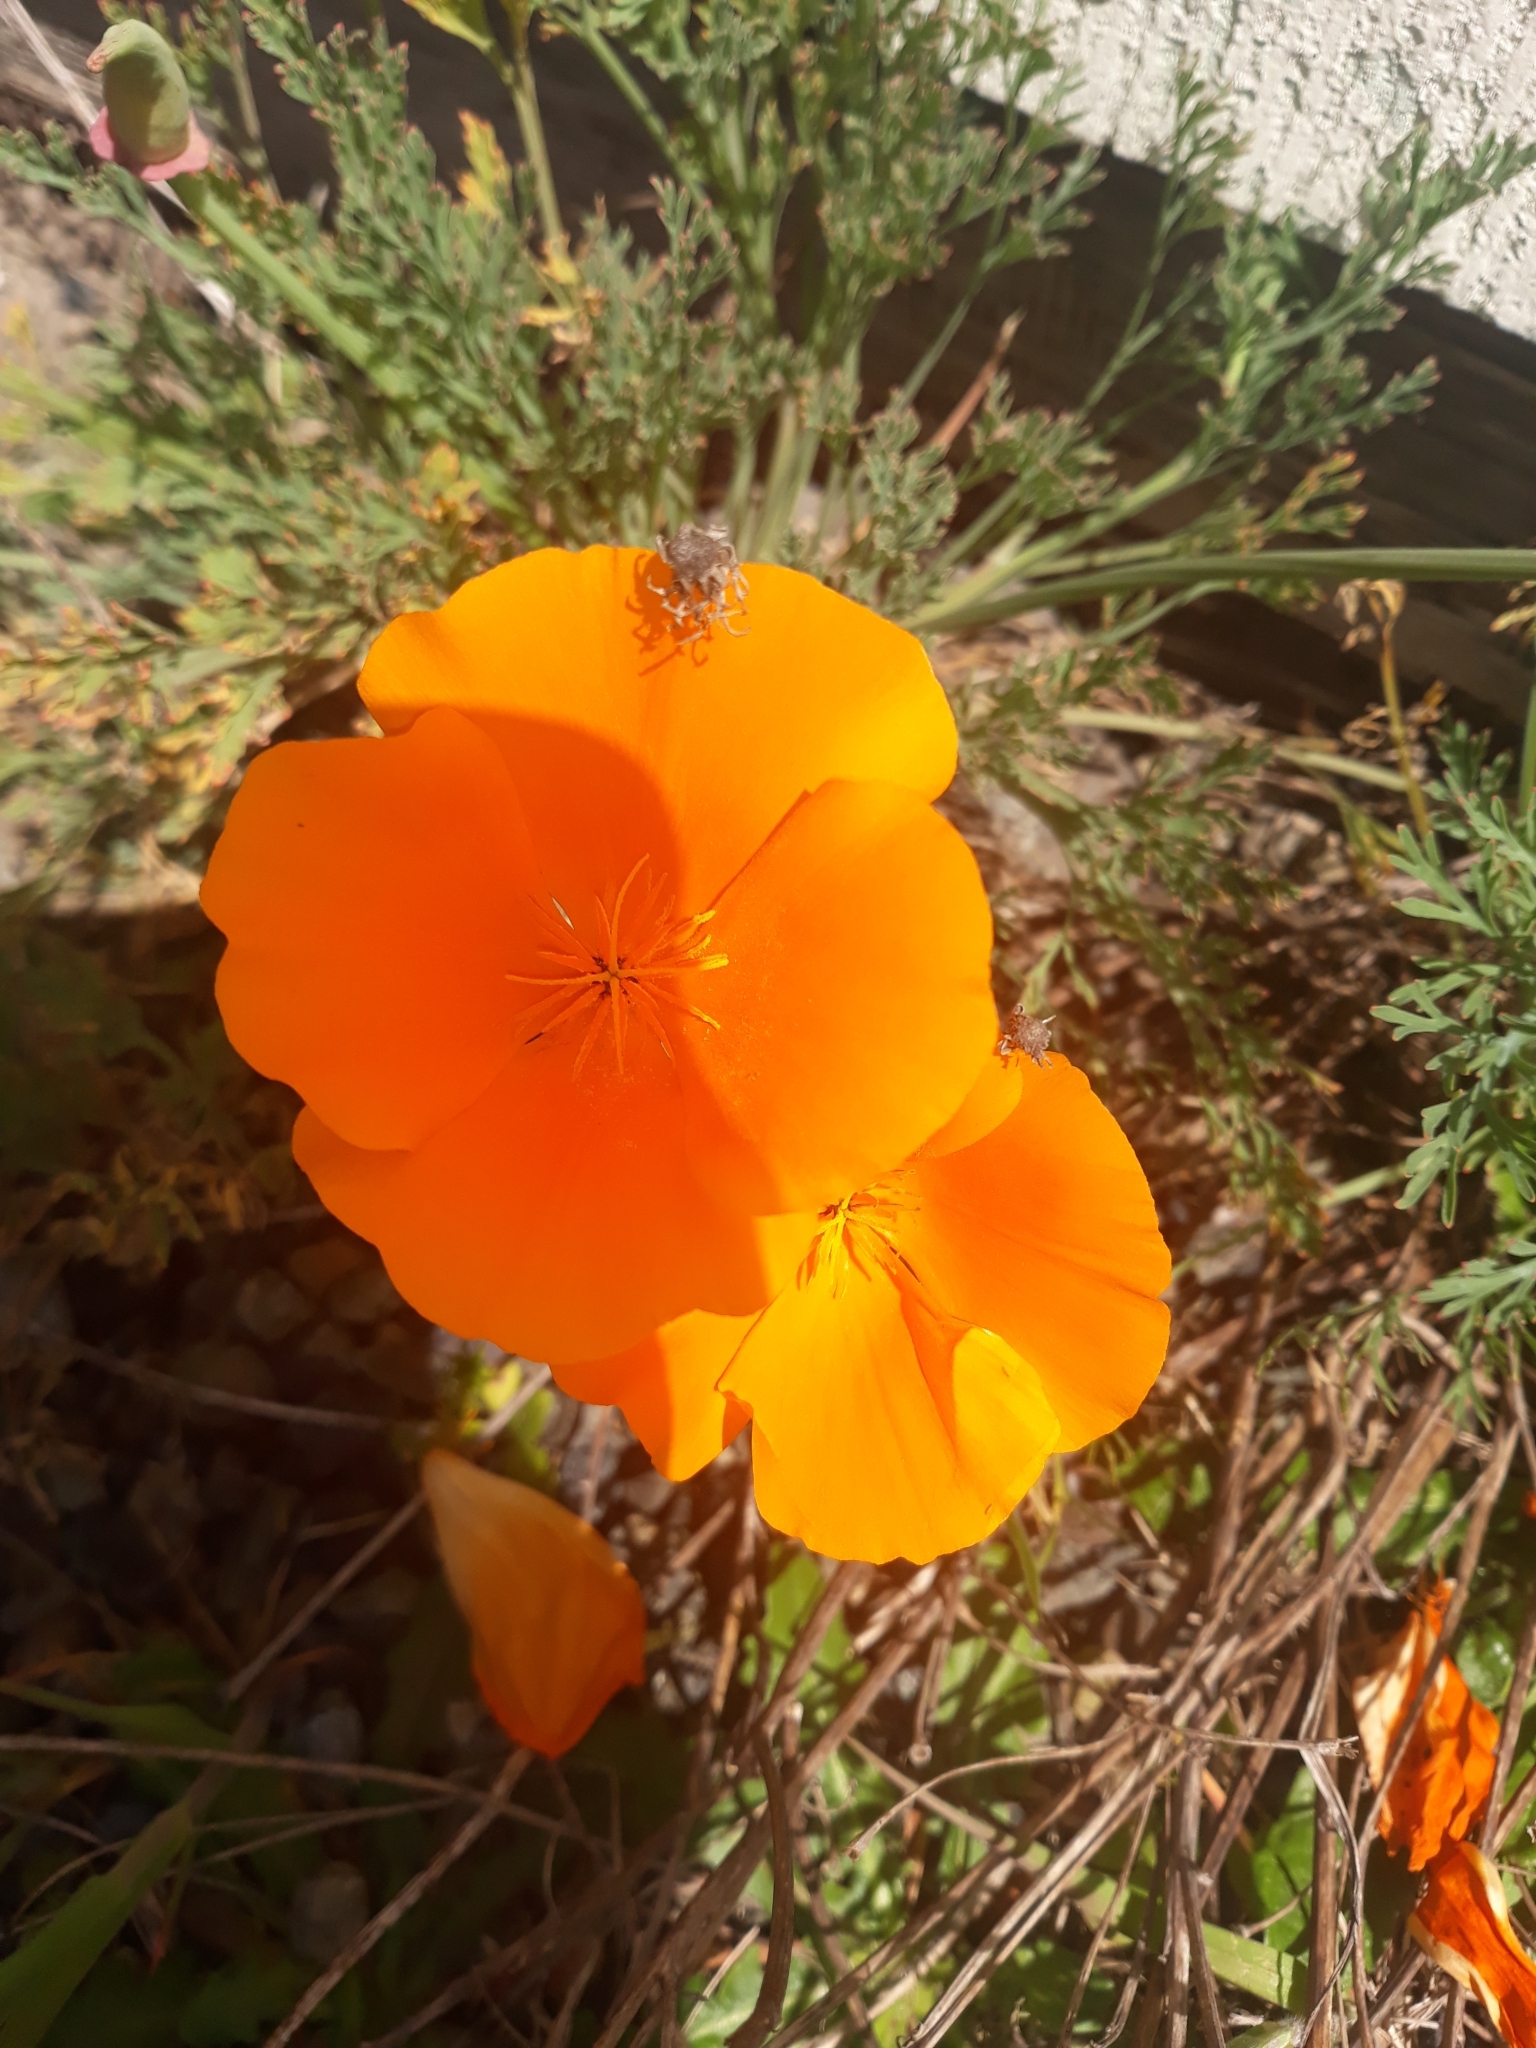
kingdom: Plantae
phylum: Tracheophyta
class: Magnoliopsida
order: Ranunculales
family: Papaveraceae
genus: Eschscholzia
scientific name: Eschscholzia californica
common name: California poppy
